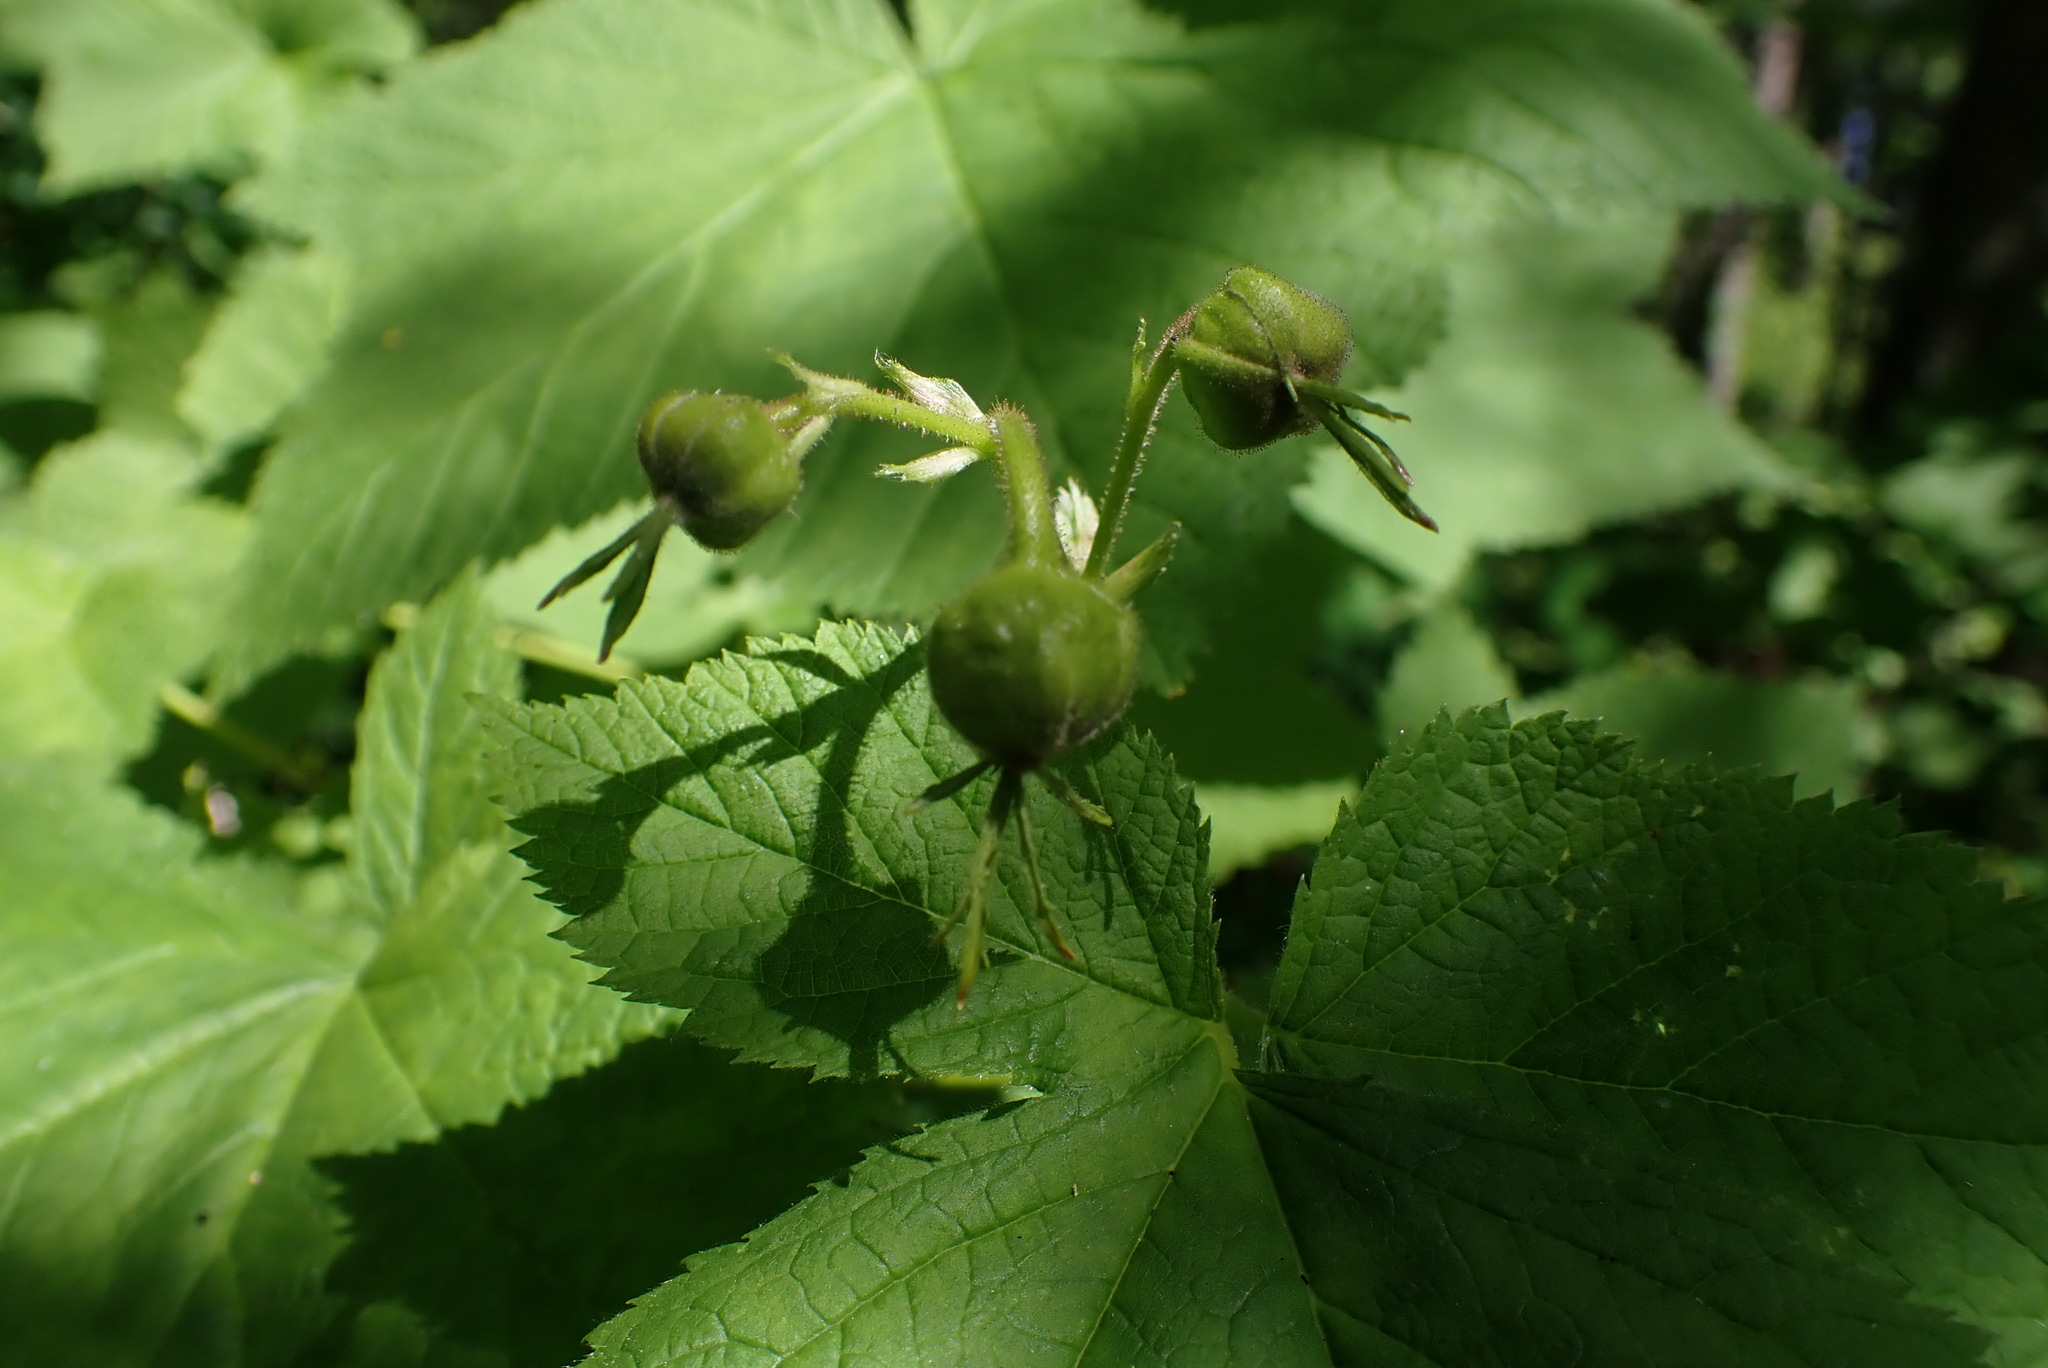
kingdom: Plantae
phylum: Tracheophyta
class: Magnoliopsida
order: Rosales
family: Rosaceae
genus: Rubus
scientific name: Rubus parviflorus
